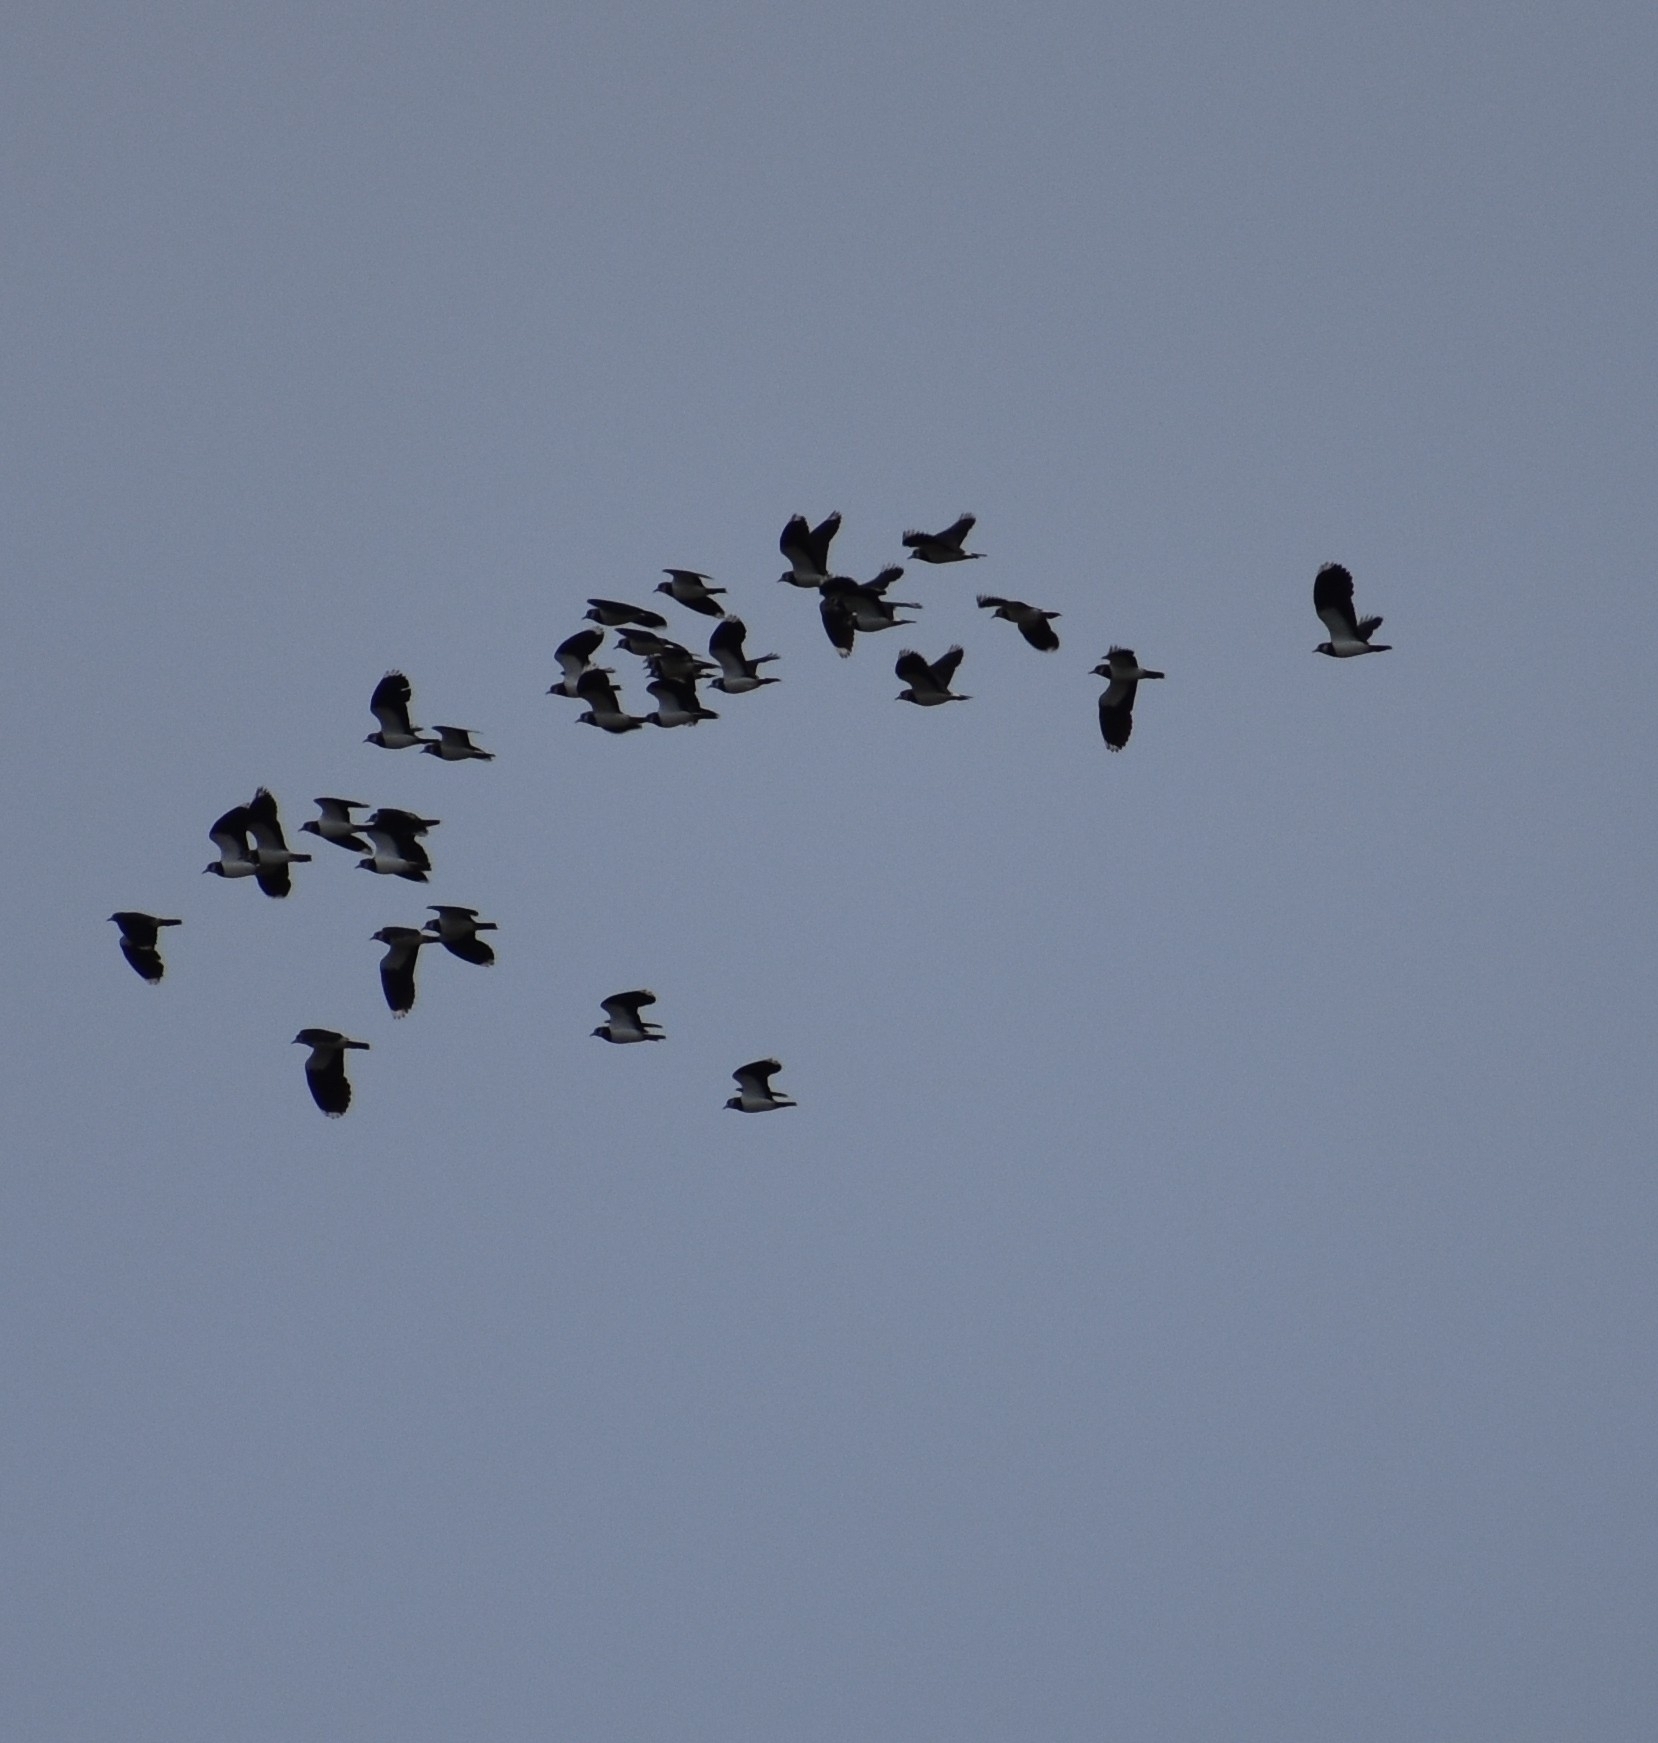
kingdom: Animalia
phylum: Chordata
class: Aves
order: Charadriiformes
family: Charadriidae
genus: Vanellus
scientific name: Vanellus vanellus
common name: Northern lapwing
